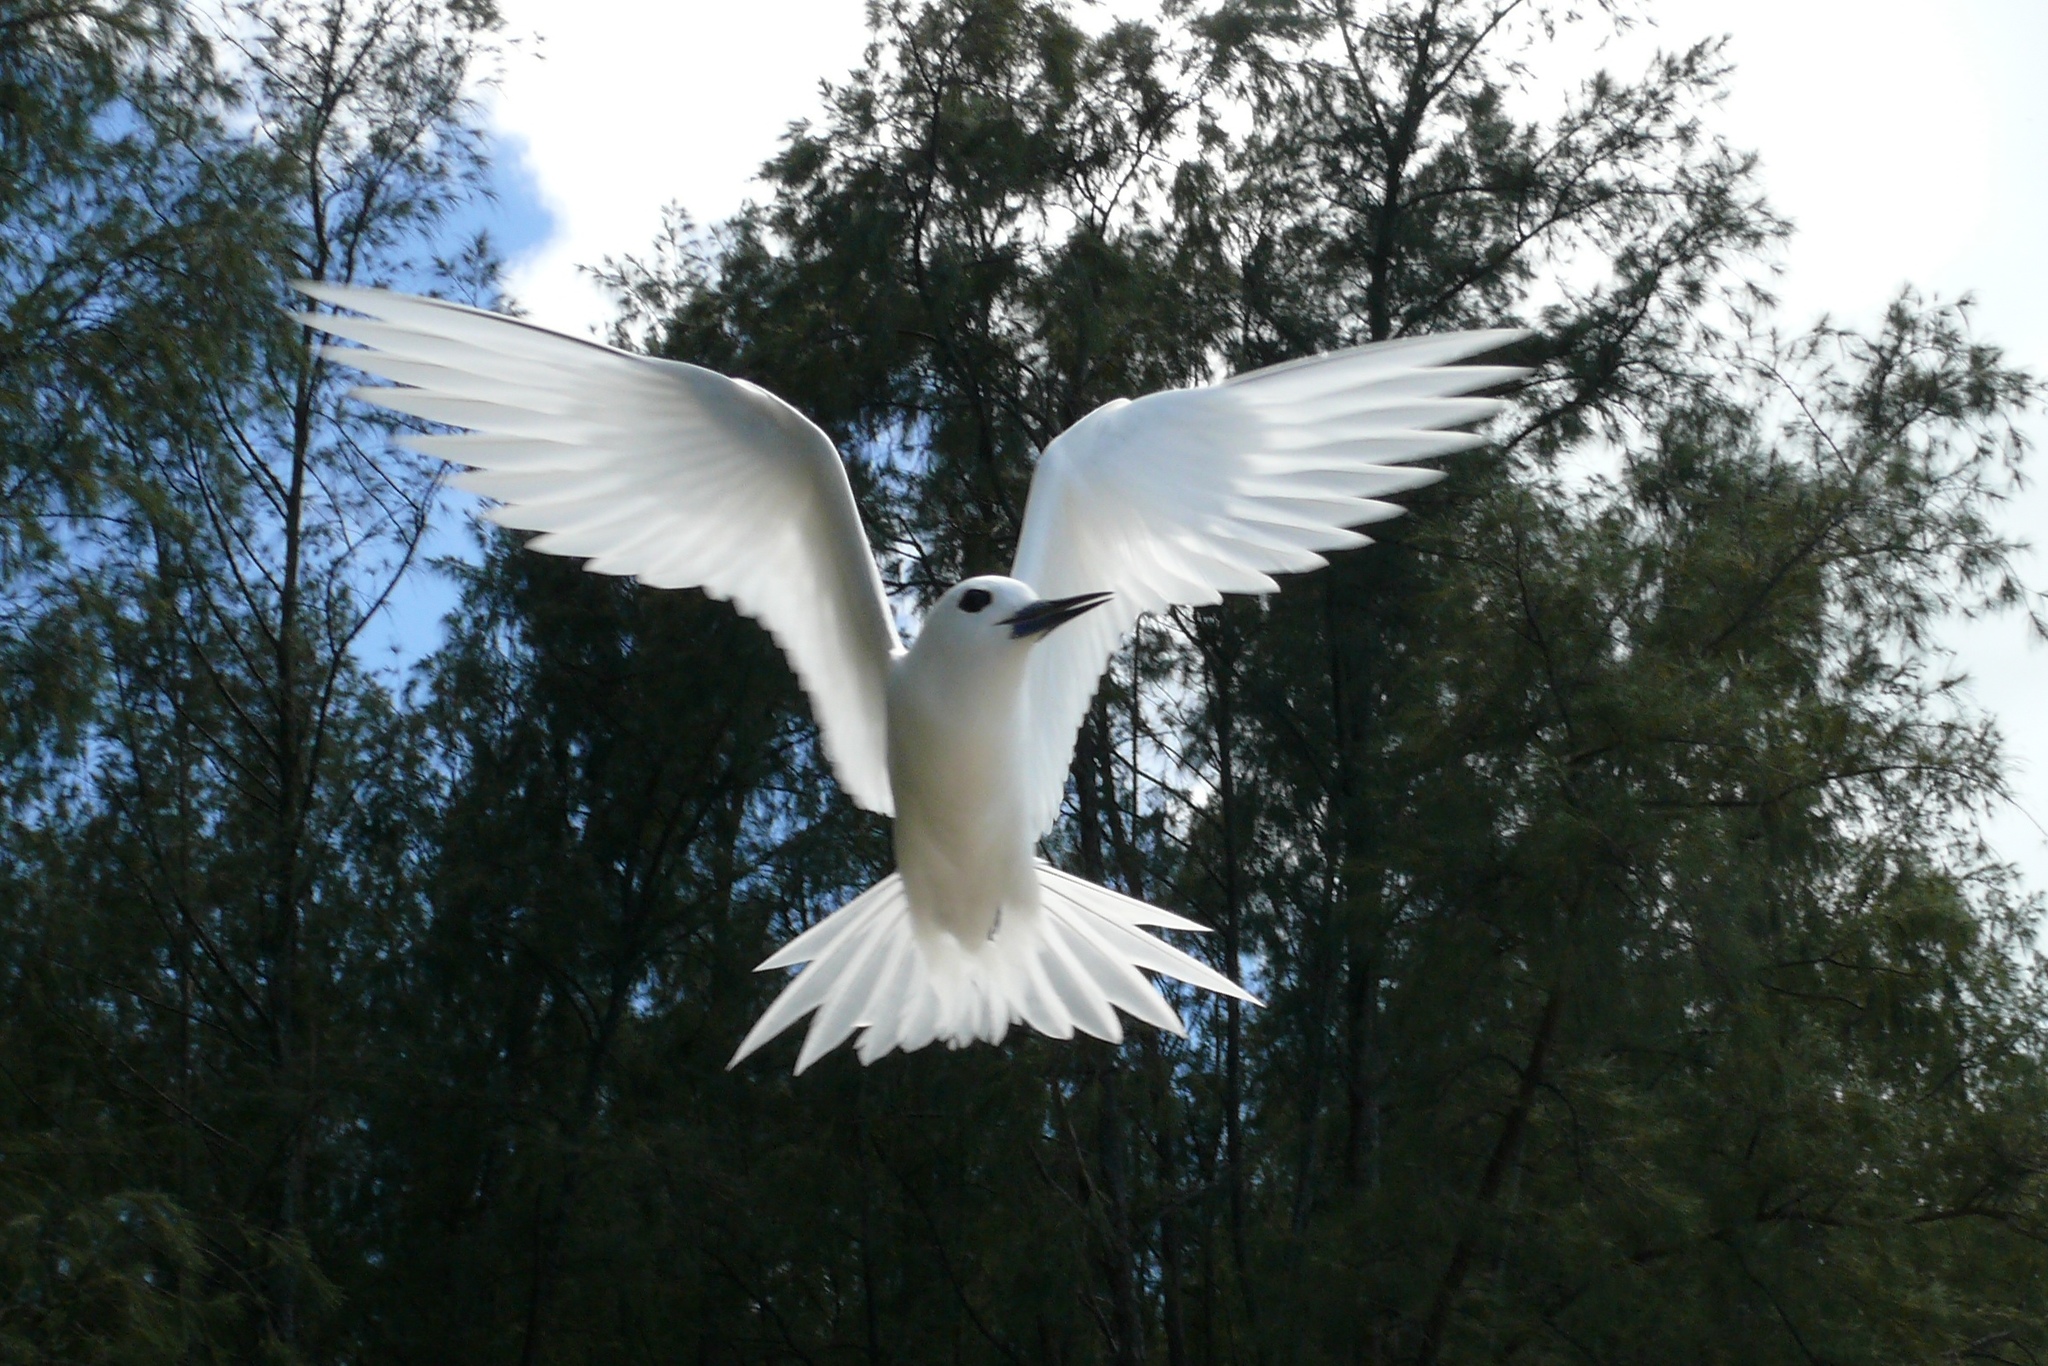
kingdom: Animalia
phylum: Chordata
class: Aves
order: Charadriiformes
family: Laridae
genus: Gygis
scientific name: Gygis alba
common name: White tern
